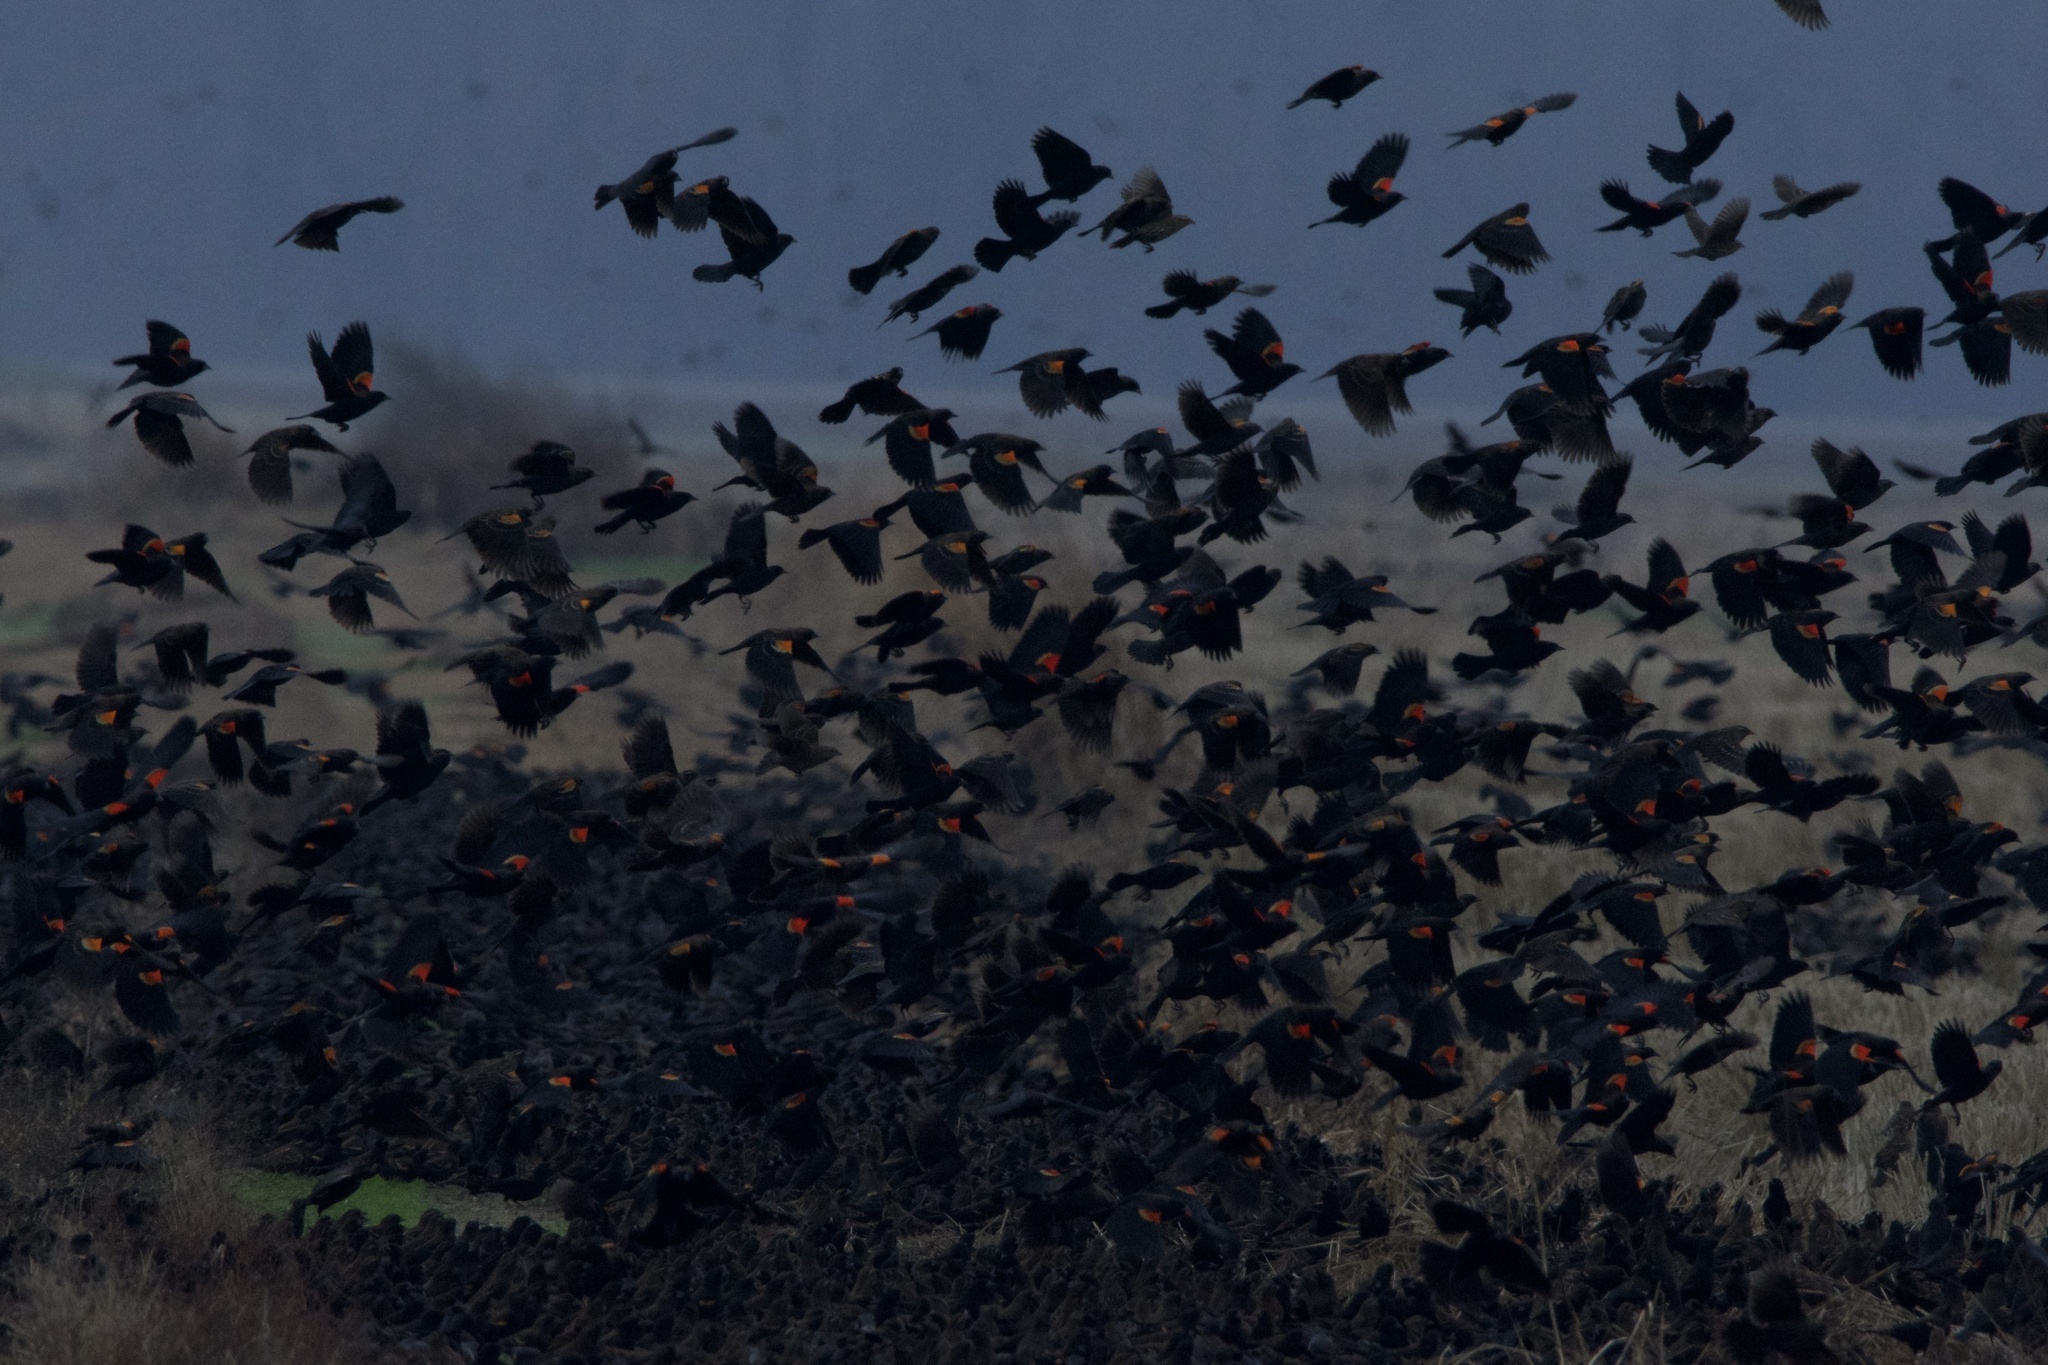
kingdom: Animalia
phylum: Chordata
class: Aves
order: Passeriformes
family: Icteridae
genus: Agelaius
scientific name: Agelaius phoeniceus
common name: Red-winged blackbird
